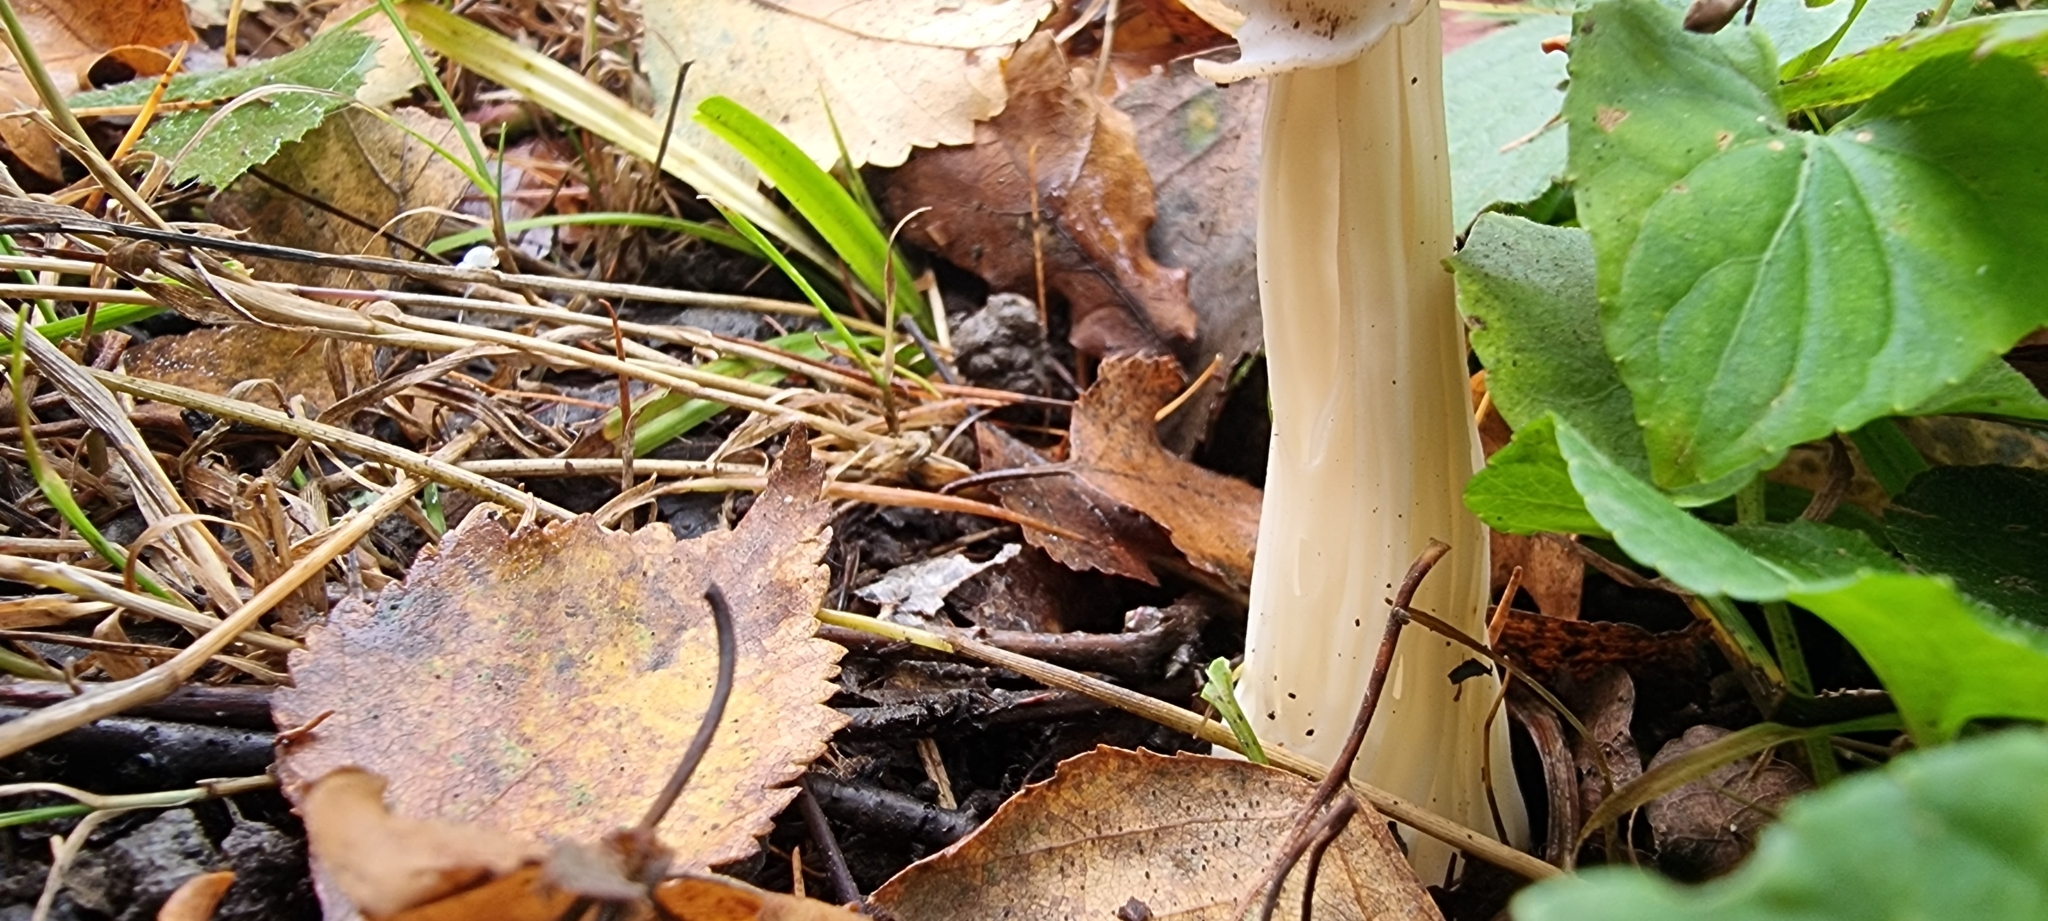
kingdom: Fungi
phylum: Ascomycota
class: Pezizomycetes
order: Pezizales
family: Helvellaceae
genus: Helvella
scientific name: Helvella crispa
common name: White saddle
